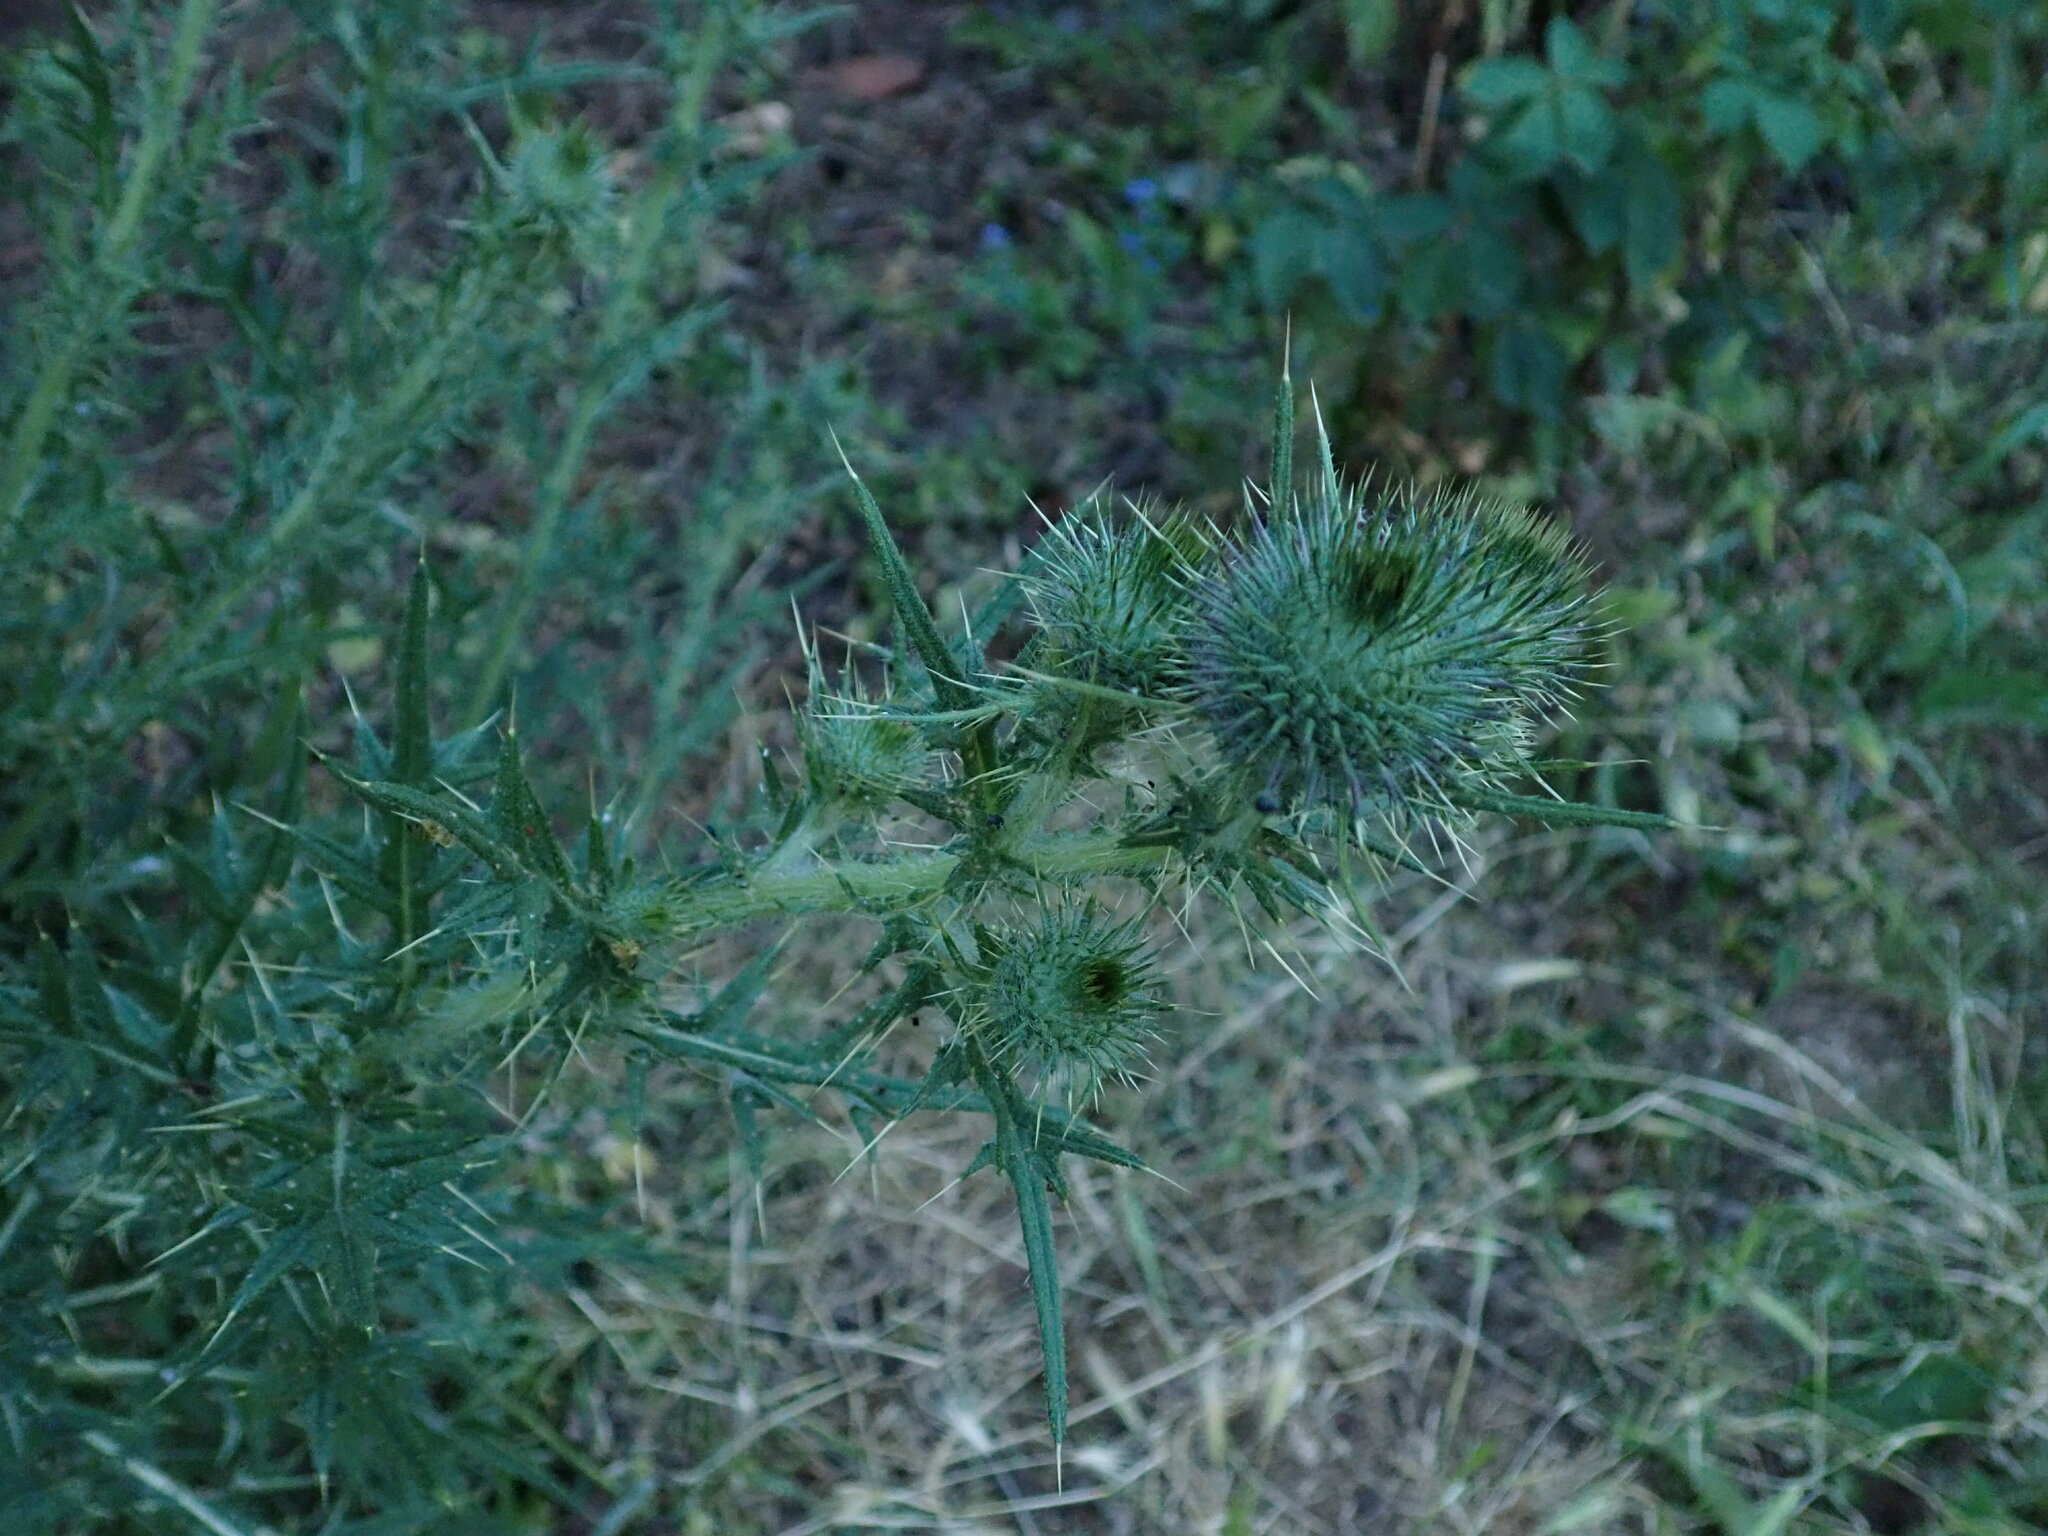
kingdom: Plantae
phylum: Tracheophyta
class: Magnoliopsida
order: Asterales
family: Asteraceae
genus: Cirsium
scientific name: Cirsium vulgare
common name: Bull thistle
